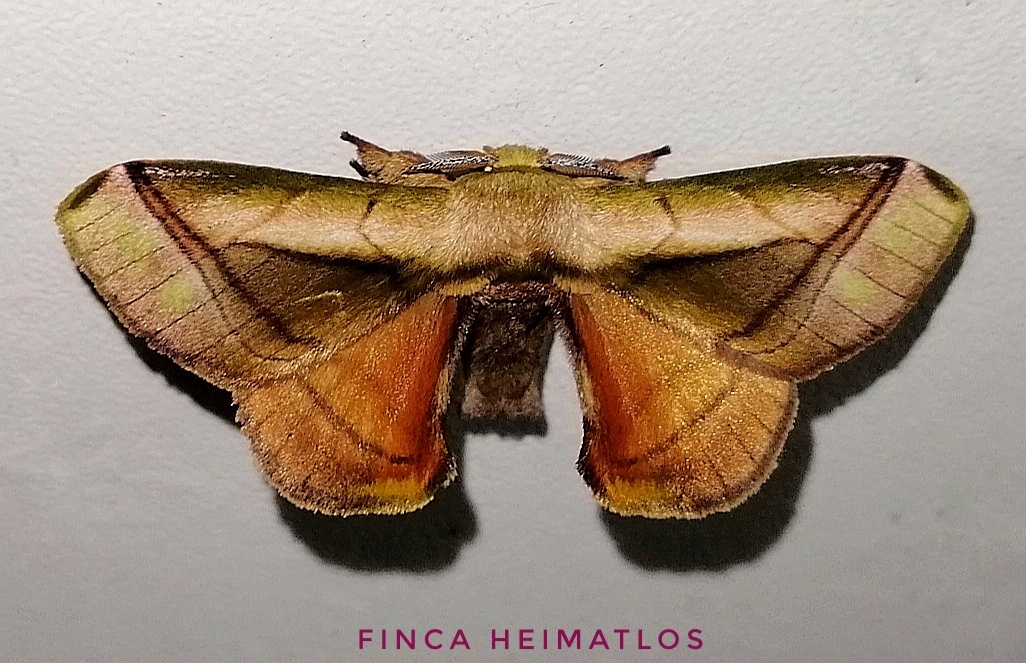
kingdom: Animalia
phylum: Arthropoda
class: Insecta
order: Lepidoptera
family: Bombycidae
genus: Epia
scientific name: Epia lebethra
